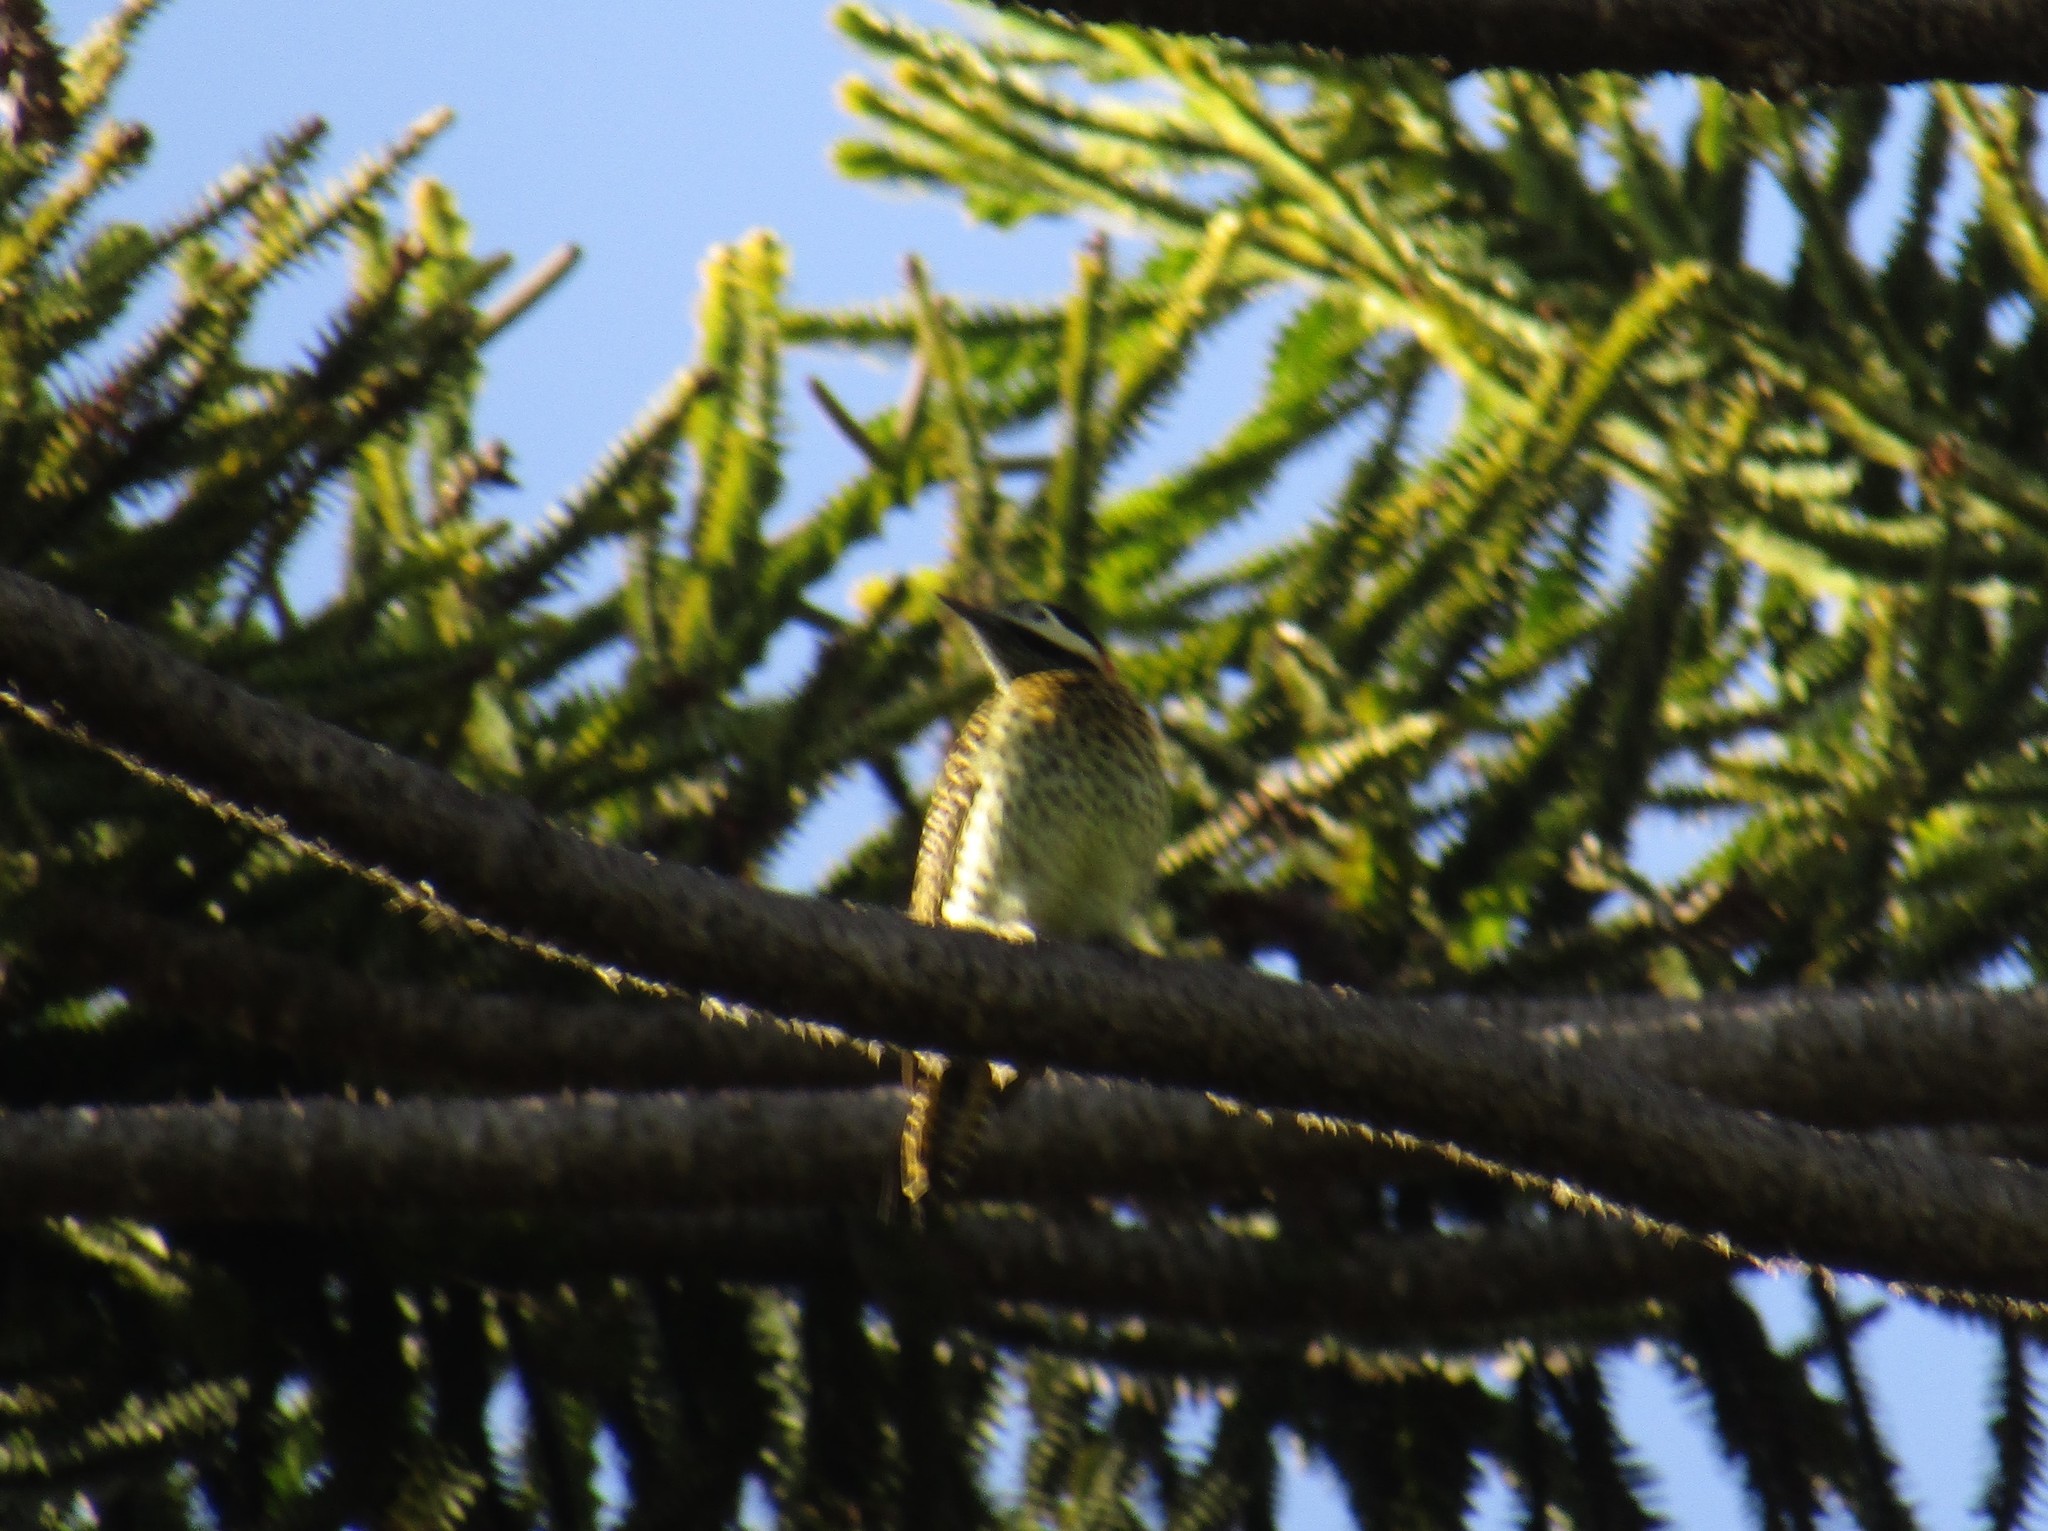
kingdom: Animalia
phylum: Chordata
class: Aves
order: Piciformes
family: Picidae
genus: Colaptes
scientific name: Colaptes melanochloros
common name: Green-barred woodpecker
